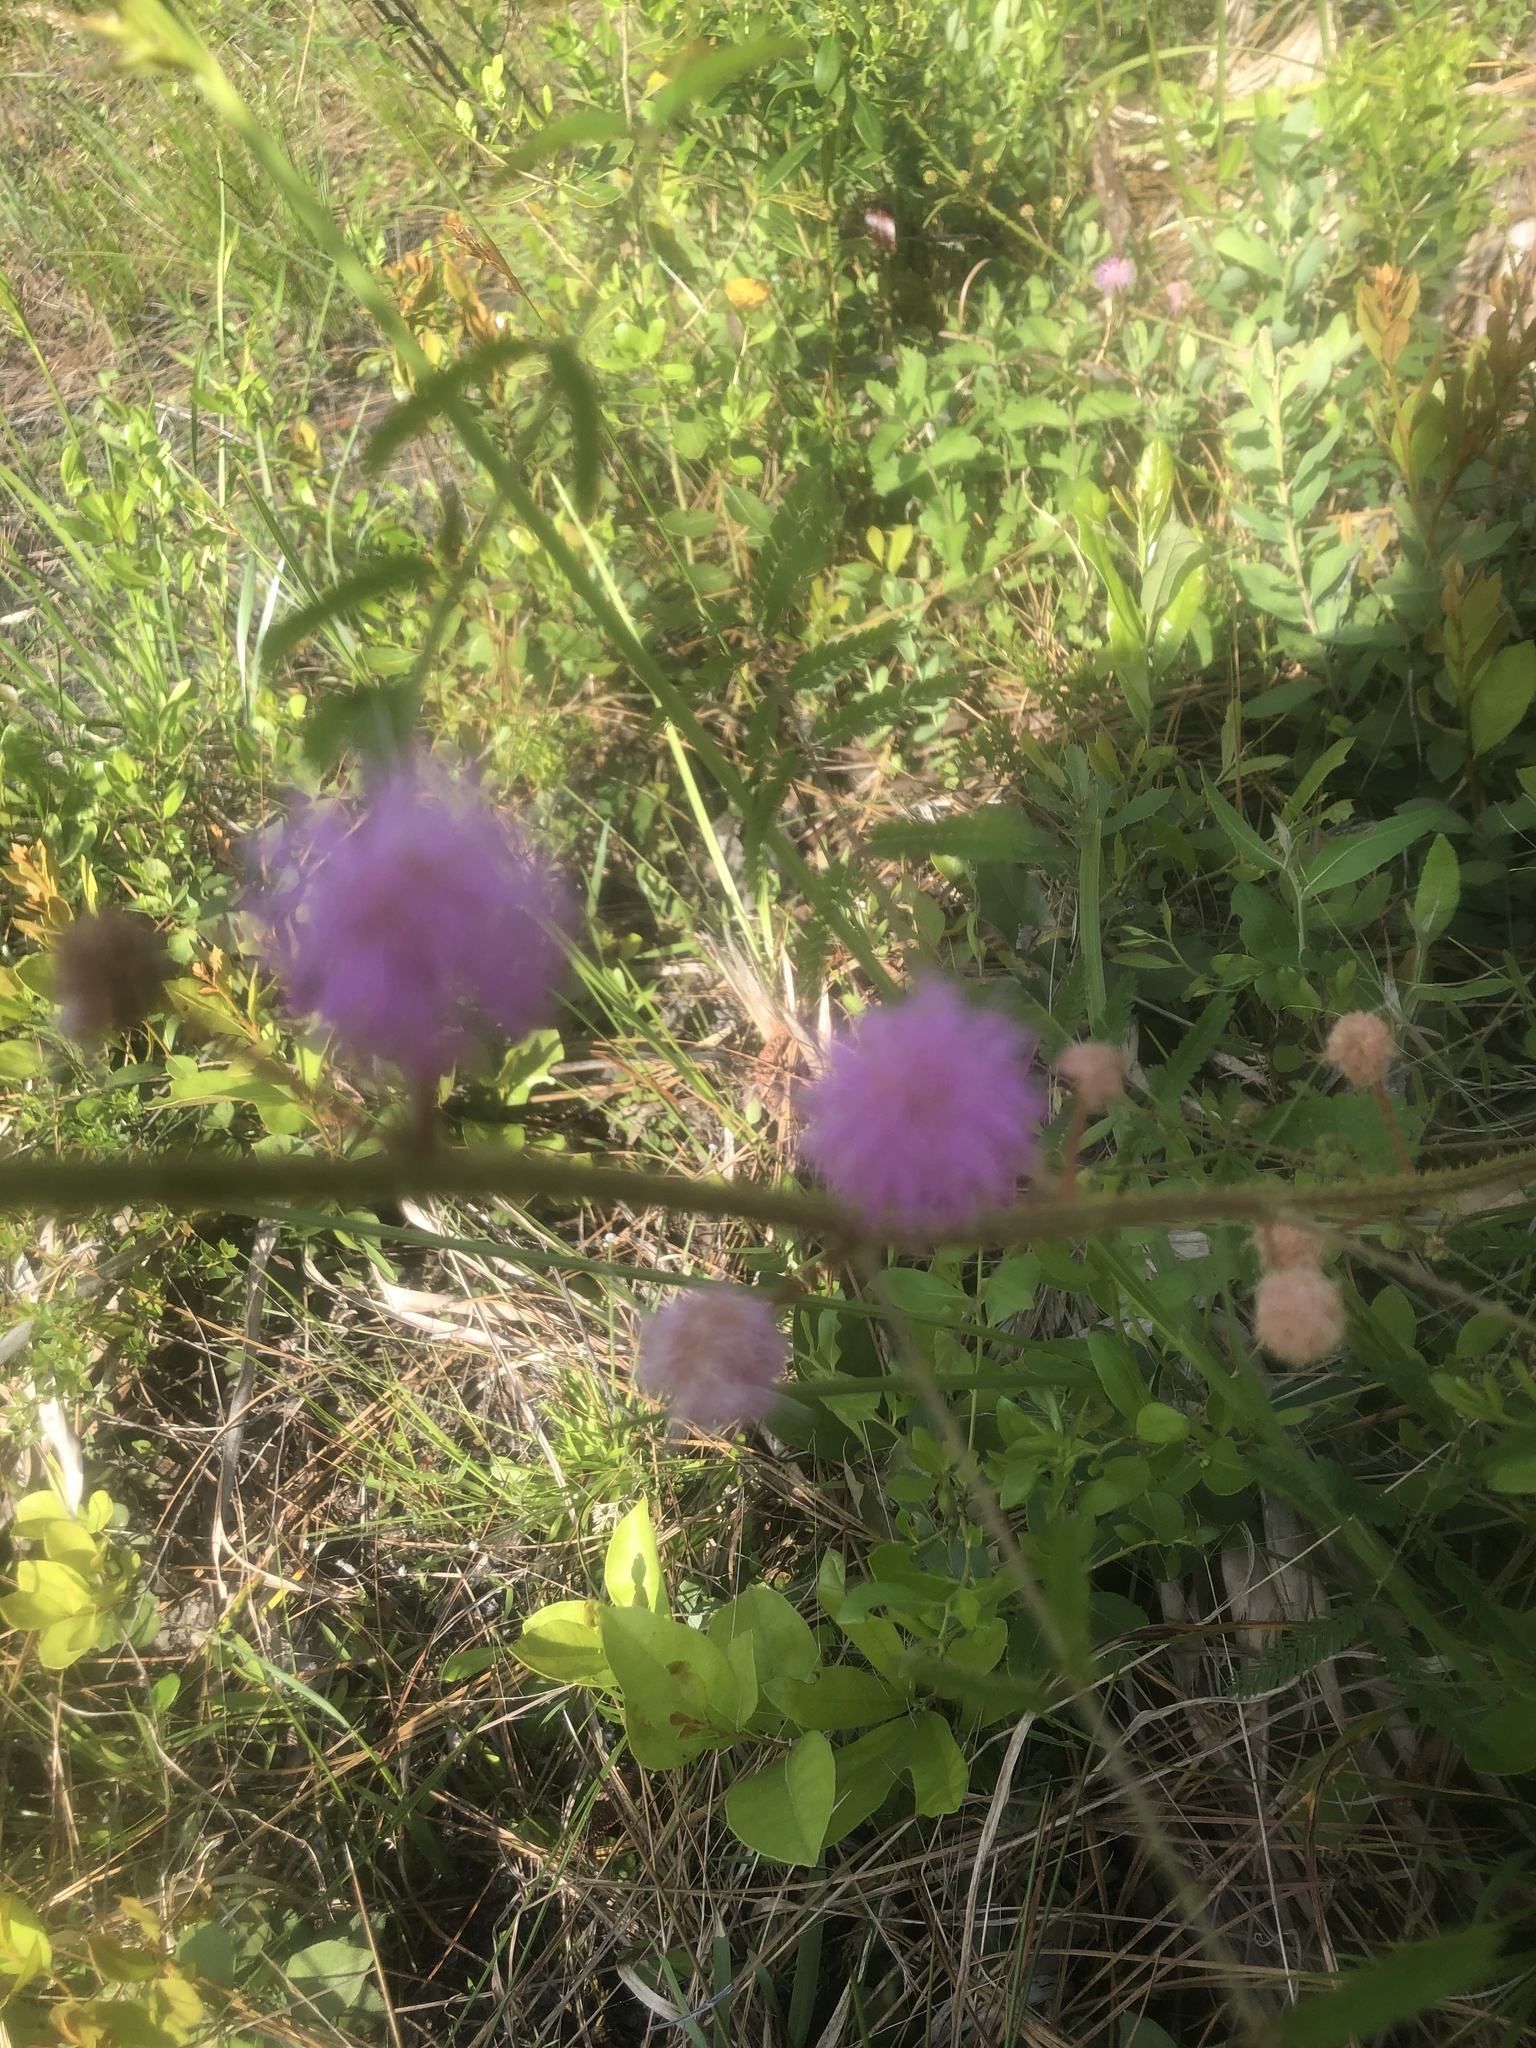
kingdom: Plantae
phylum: Tracheophyta
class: Magnoliopsida
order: Fabales
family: Fabaceae
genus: Mimosa
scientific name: Mimosa floridana
